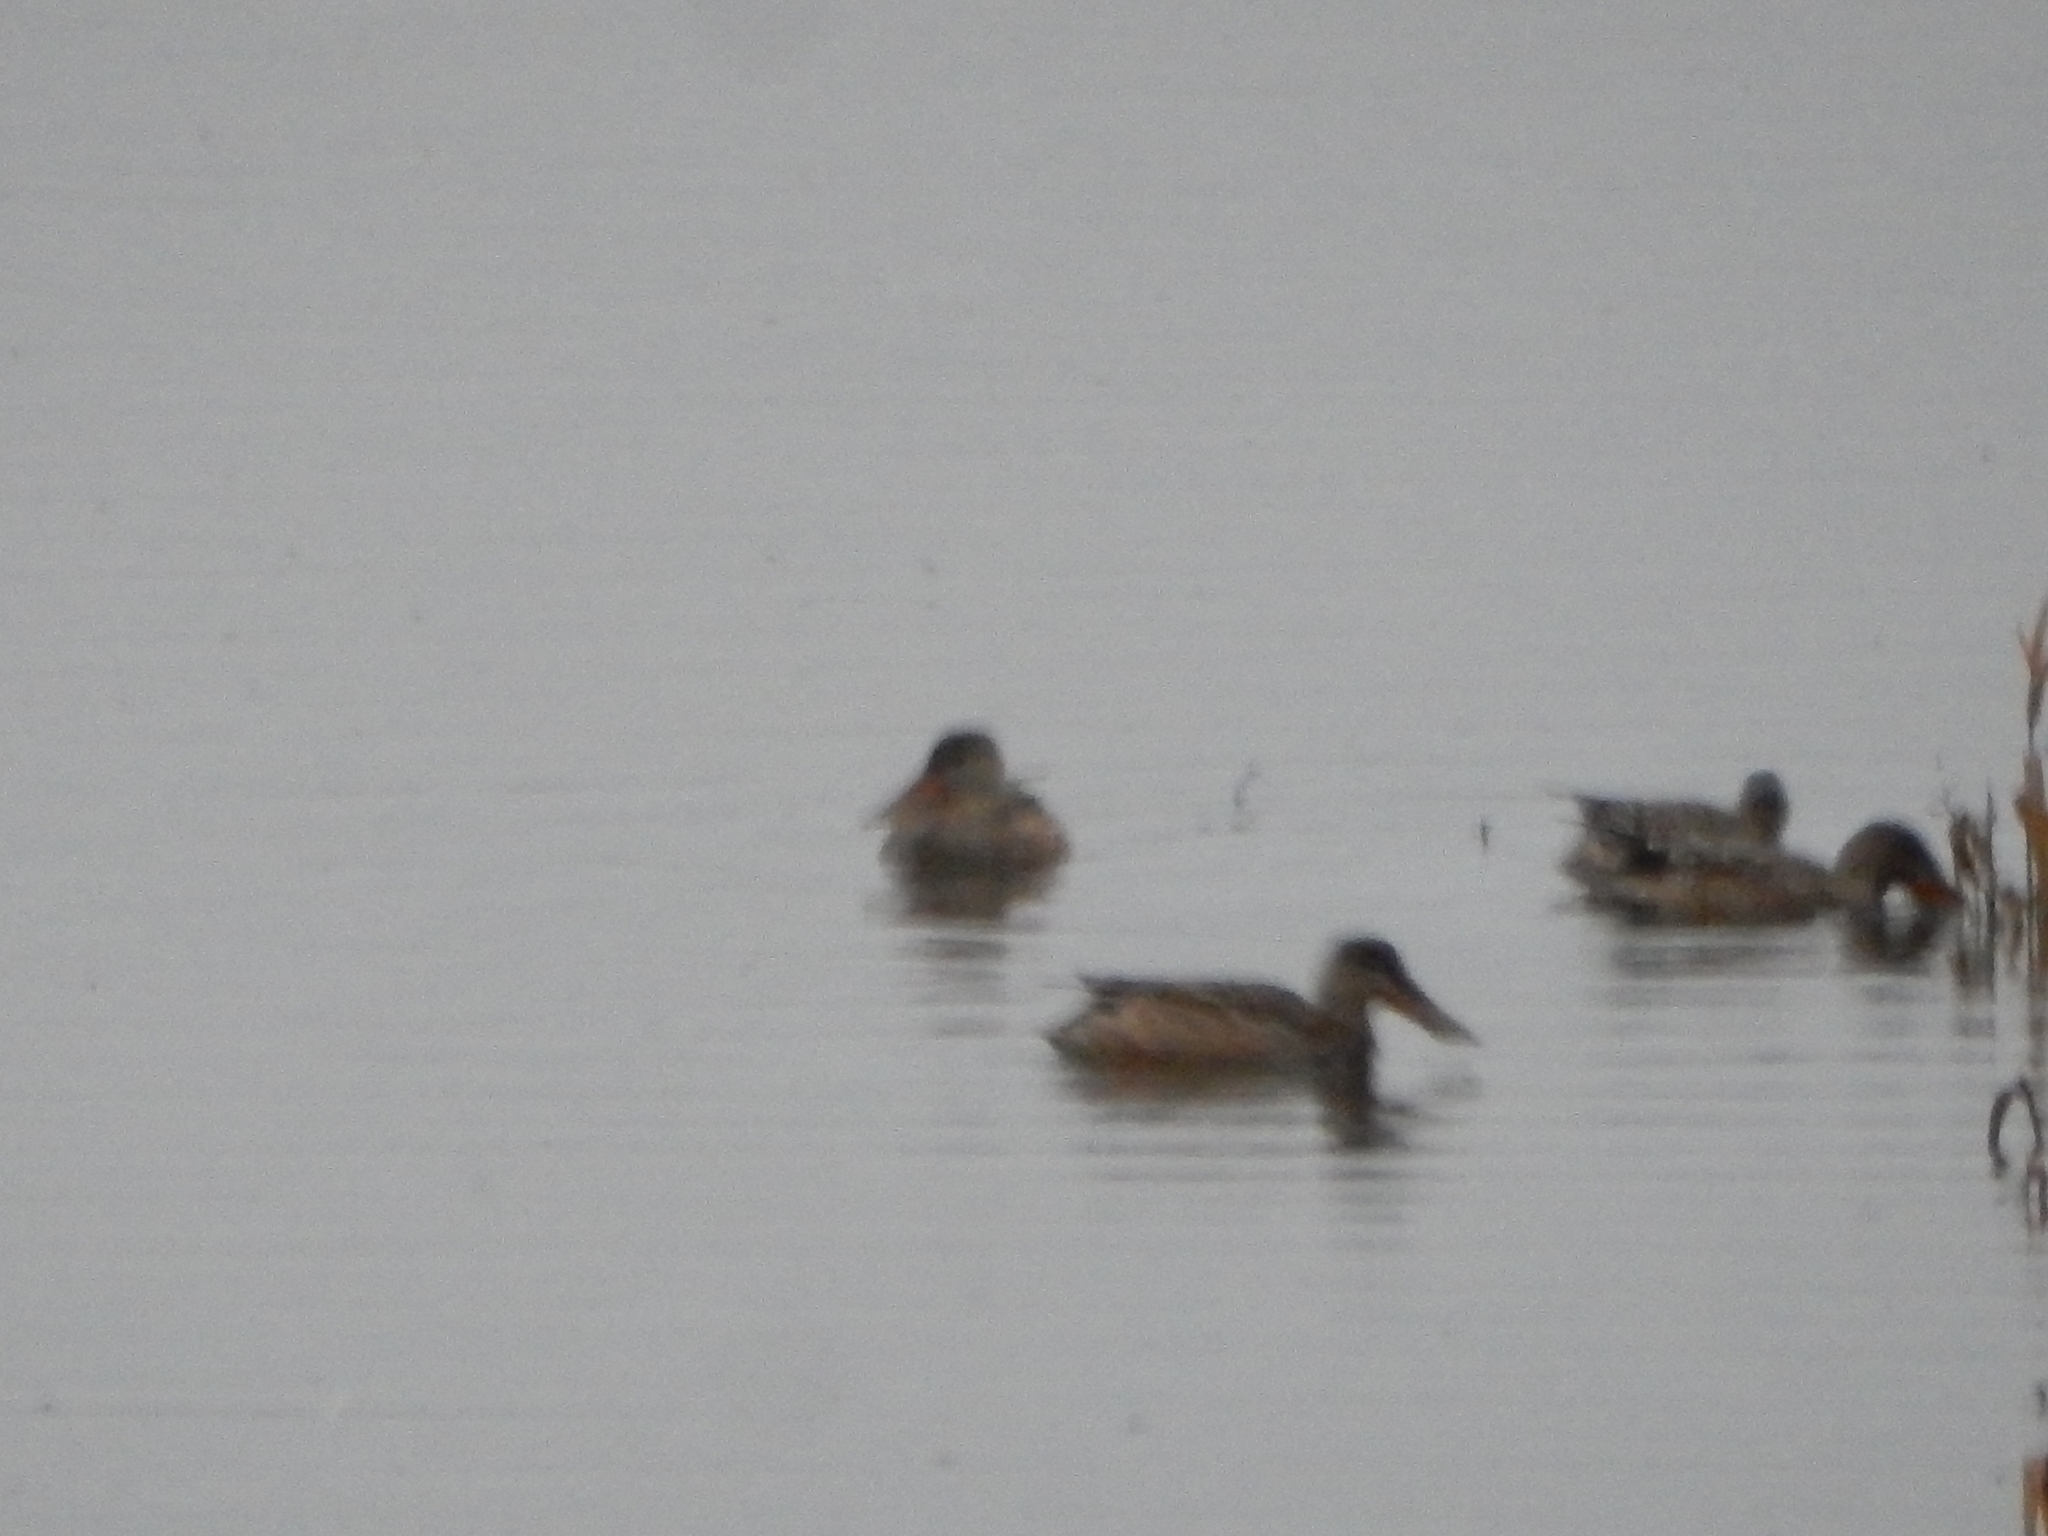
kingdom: Animalia
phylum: Chordata
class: Aves
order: Anseriformes
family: Anatidae
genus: Spatula
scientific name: Spatula clypeata
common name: Northern shoveler
